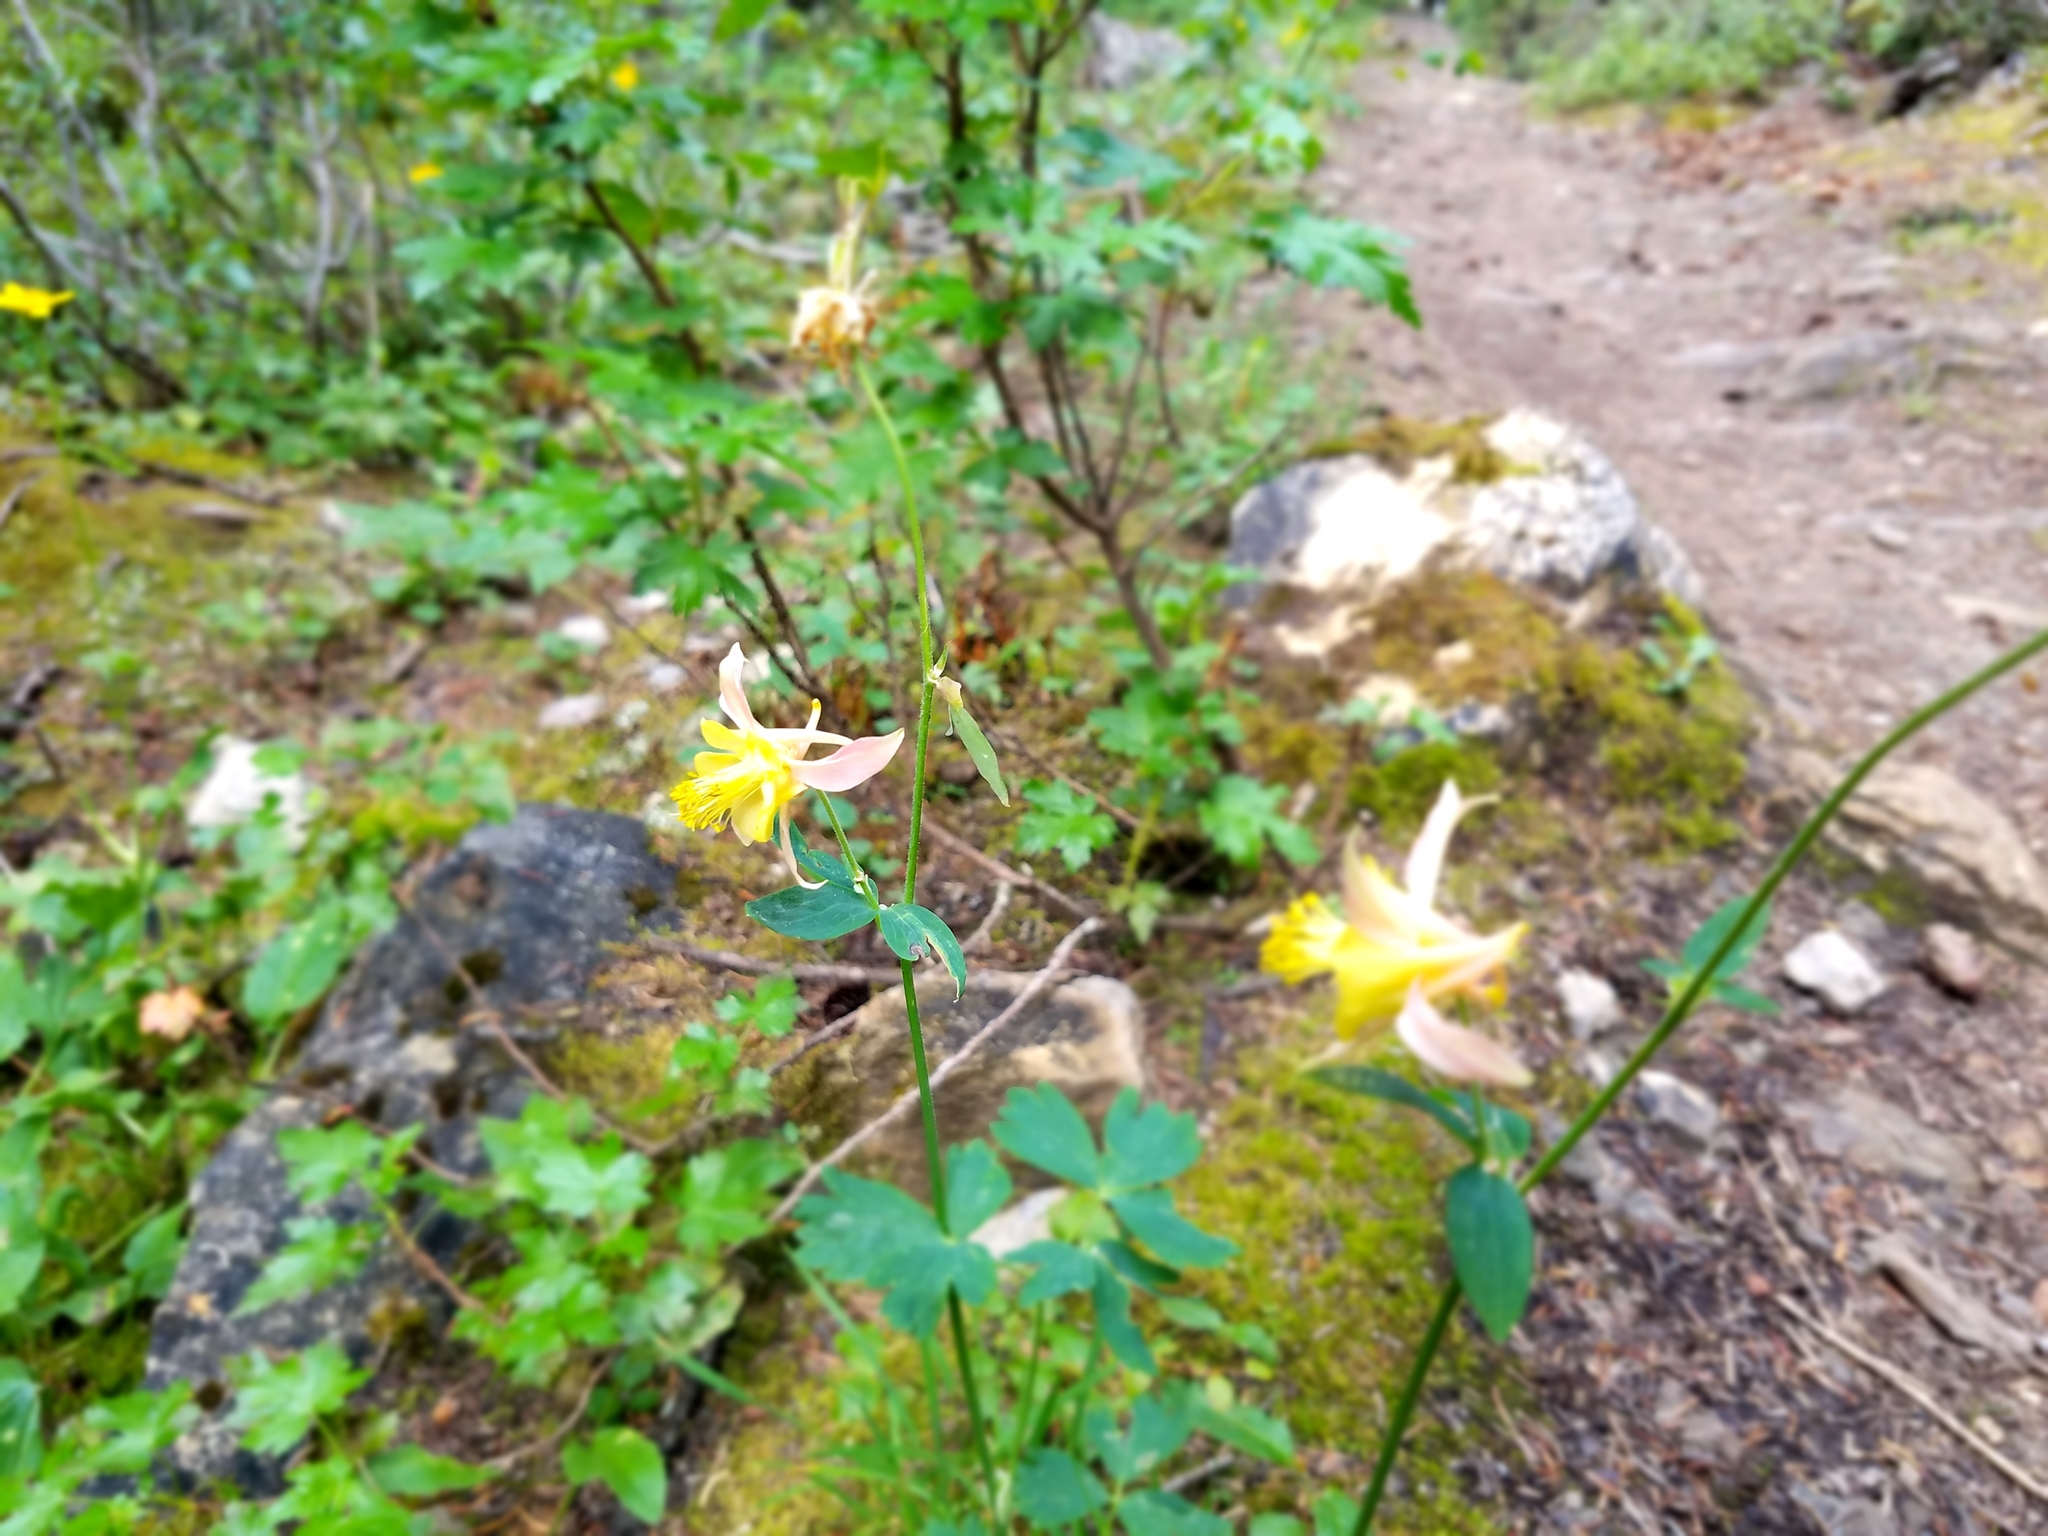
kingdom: Plantae
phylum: Tracheophyta
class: Magnoliopsida
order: Ranunculales
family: Ranunculaceae
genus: Aquilegia
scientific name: Aquilegia flavescens
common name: Yellow columbine
